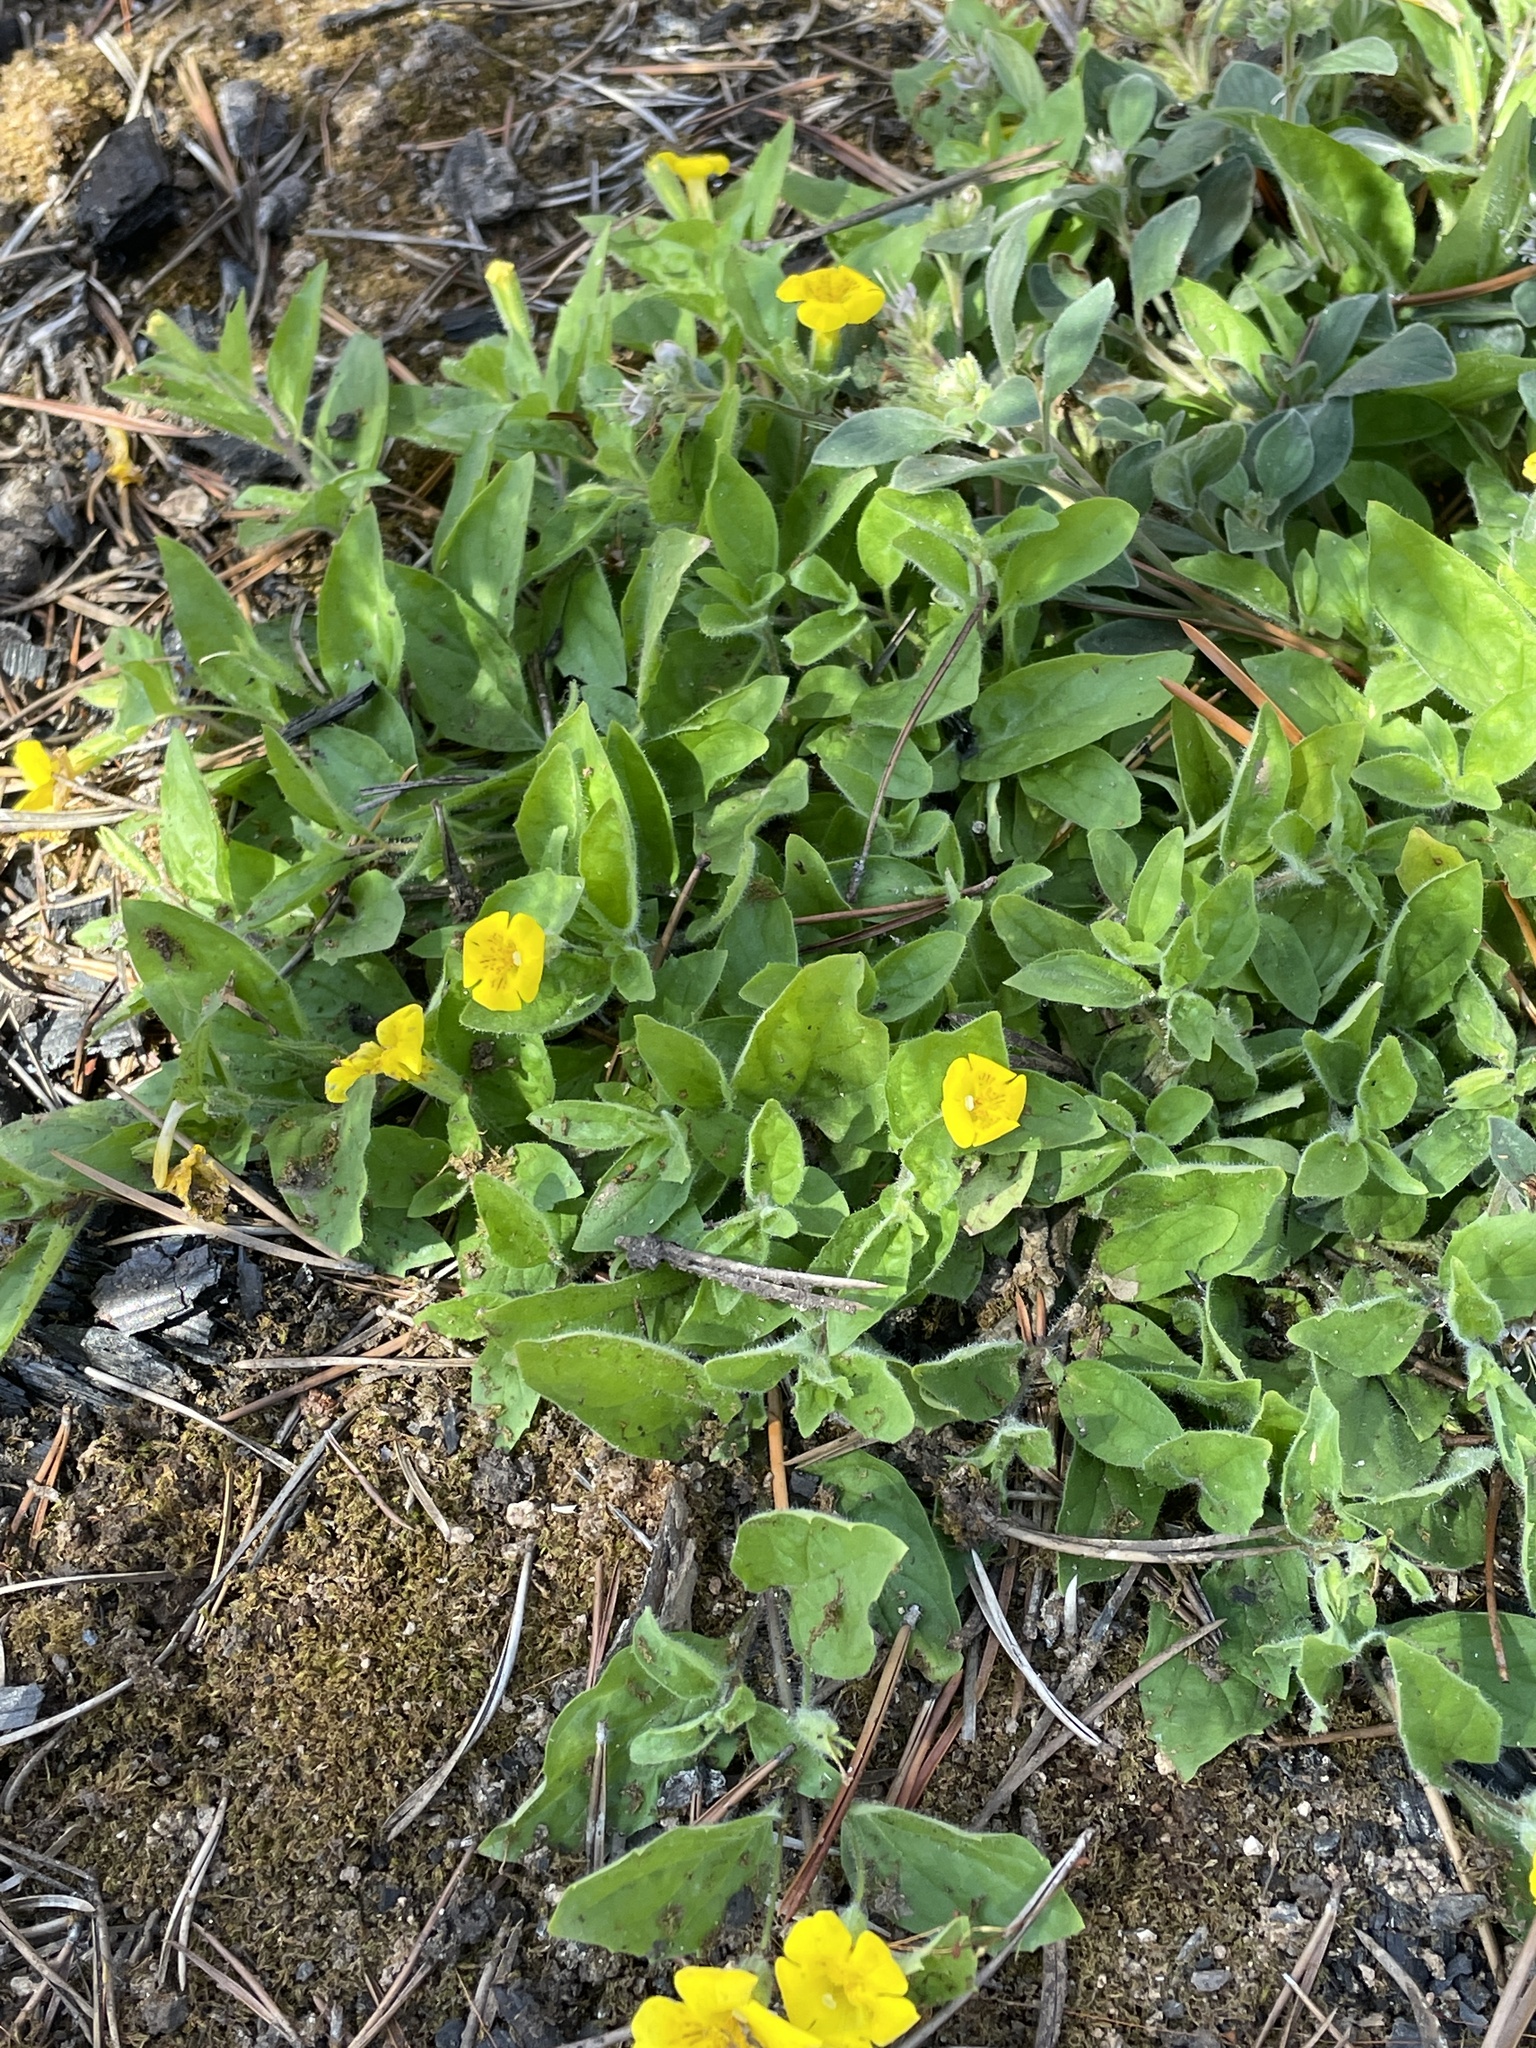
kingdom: Plantae
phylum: Tracheophyta
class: Magnoliopsida
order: Lamiales
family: Phrymaceae
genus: Erythranthe
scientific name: Erythranthe moschata
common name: Muskflower
